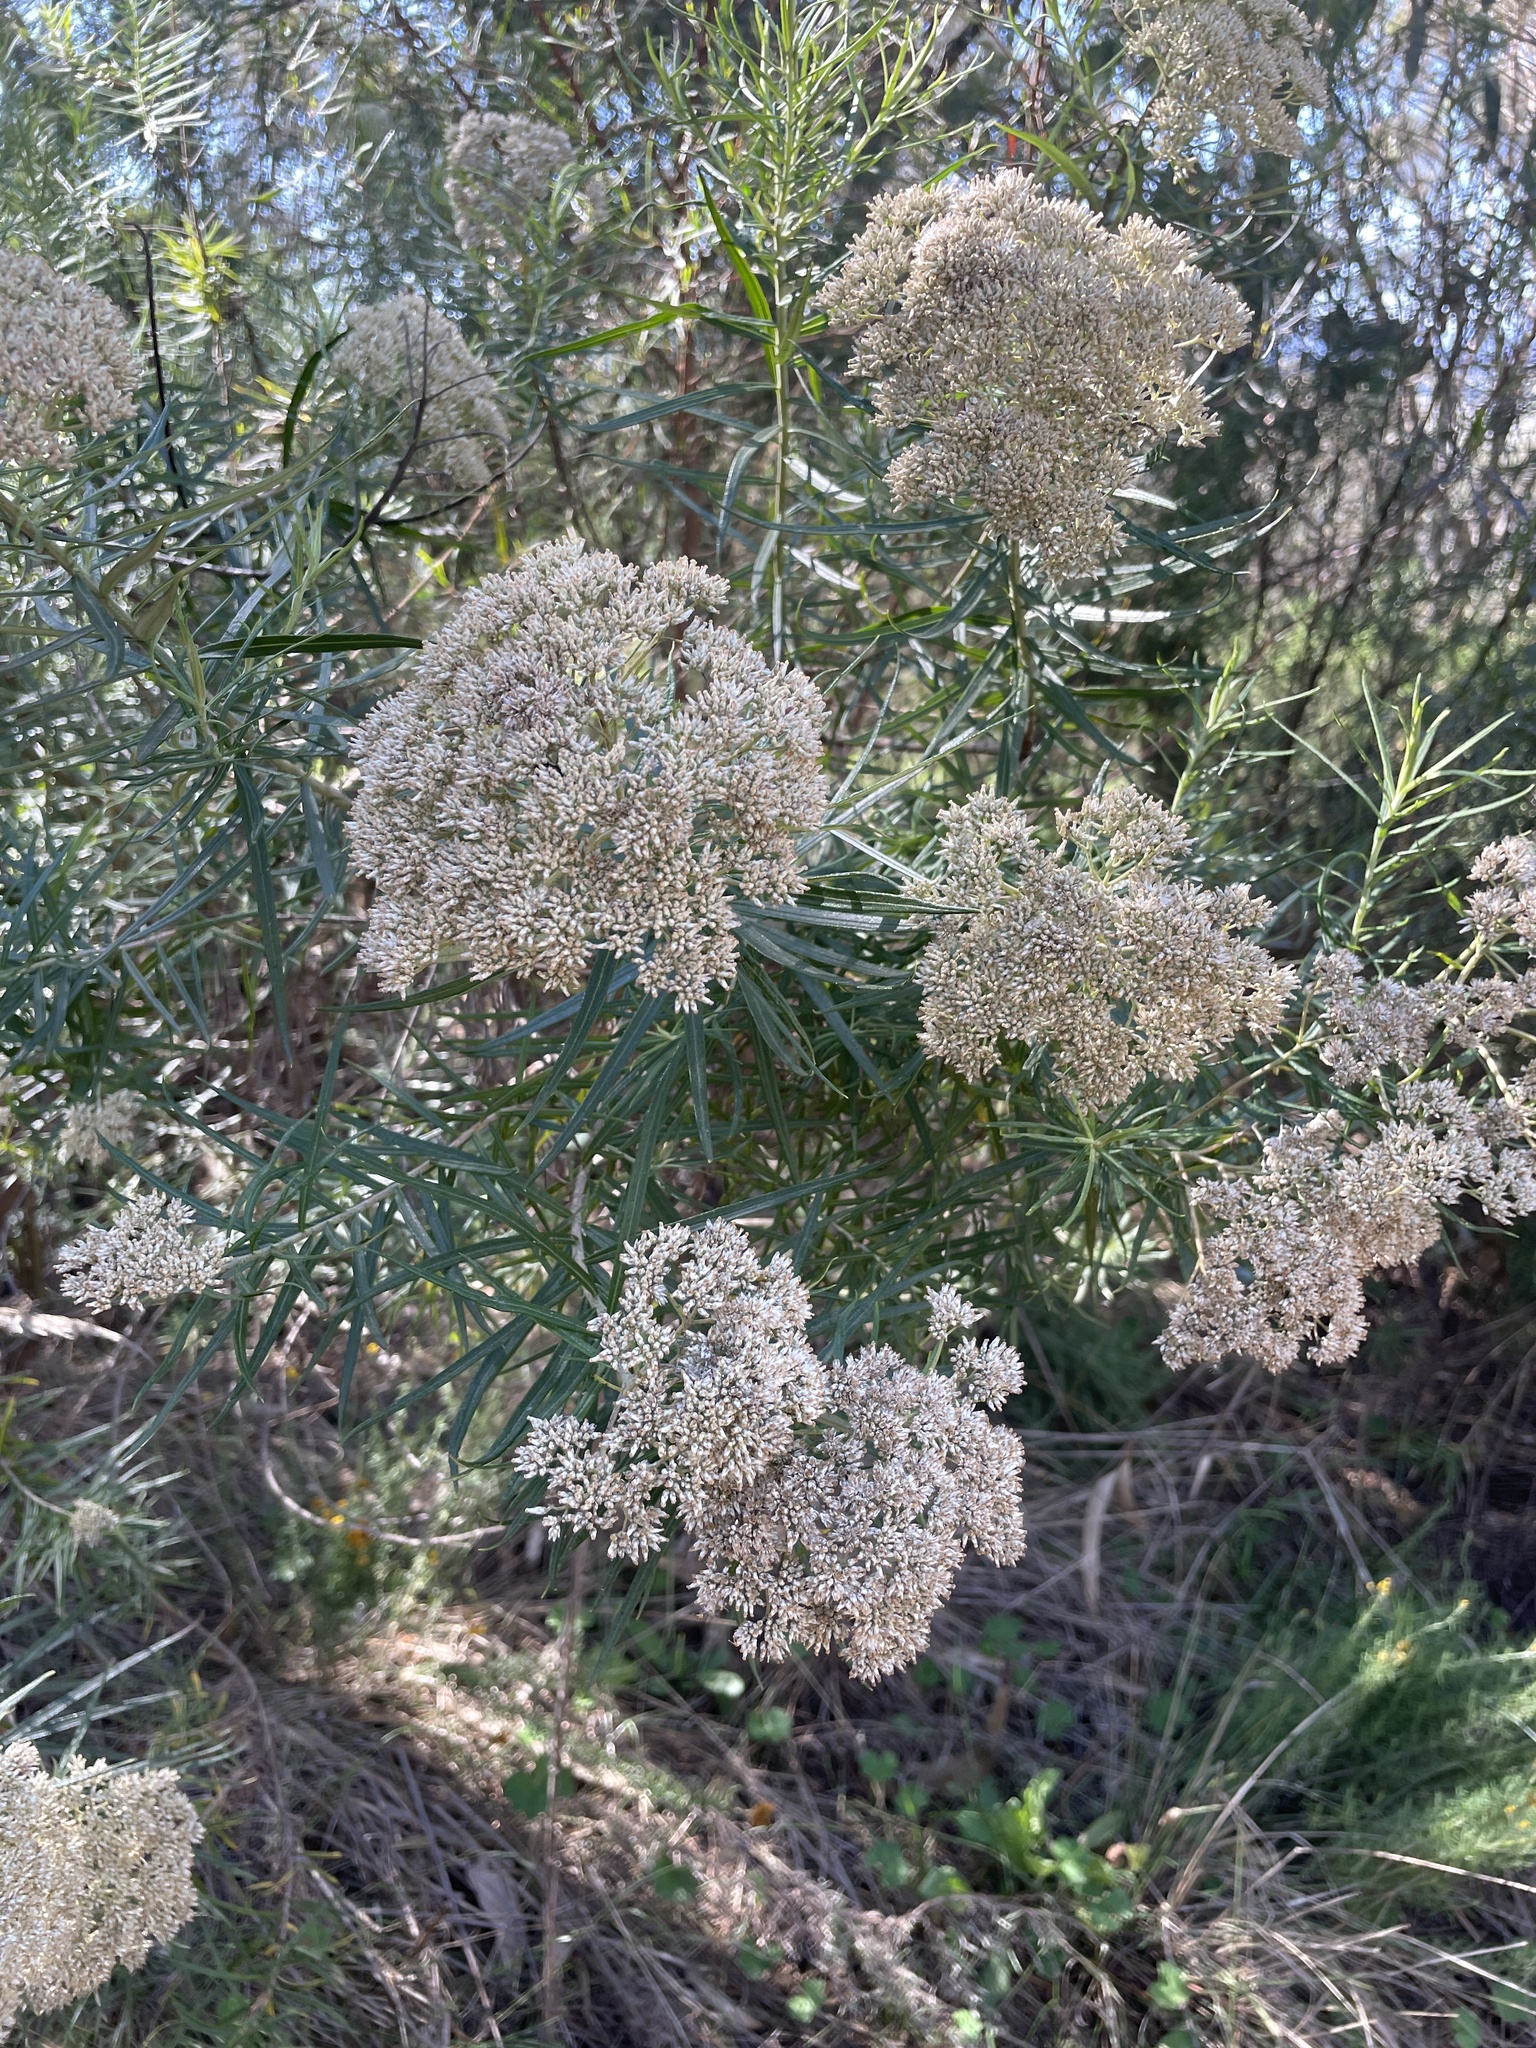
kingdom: Plantae
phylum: Tracheophyta
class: Magnoliopsida
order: Asterales
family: Asteraceae
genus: Cassinia
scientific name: Cassinia longifolia
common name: Longleaf-dogwood
